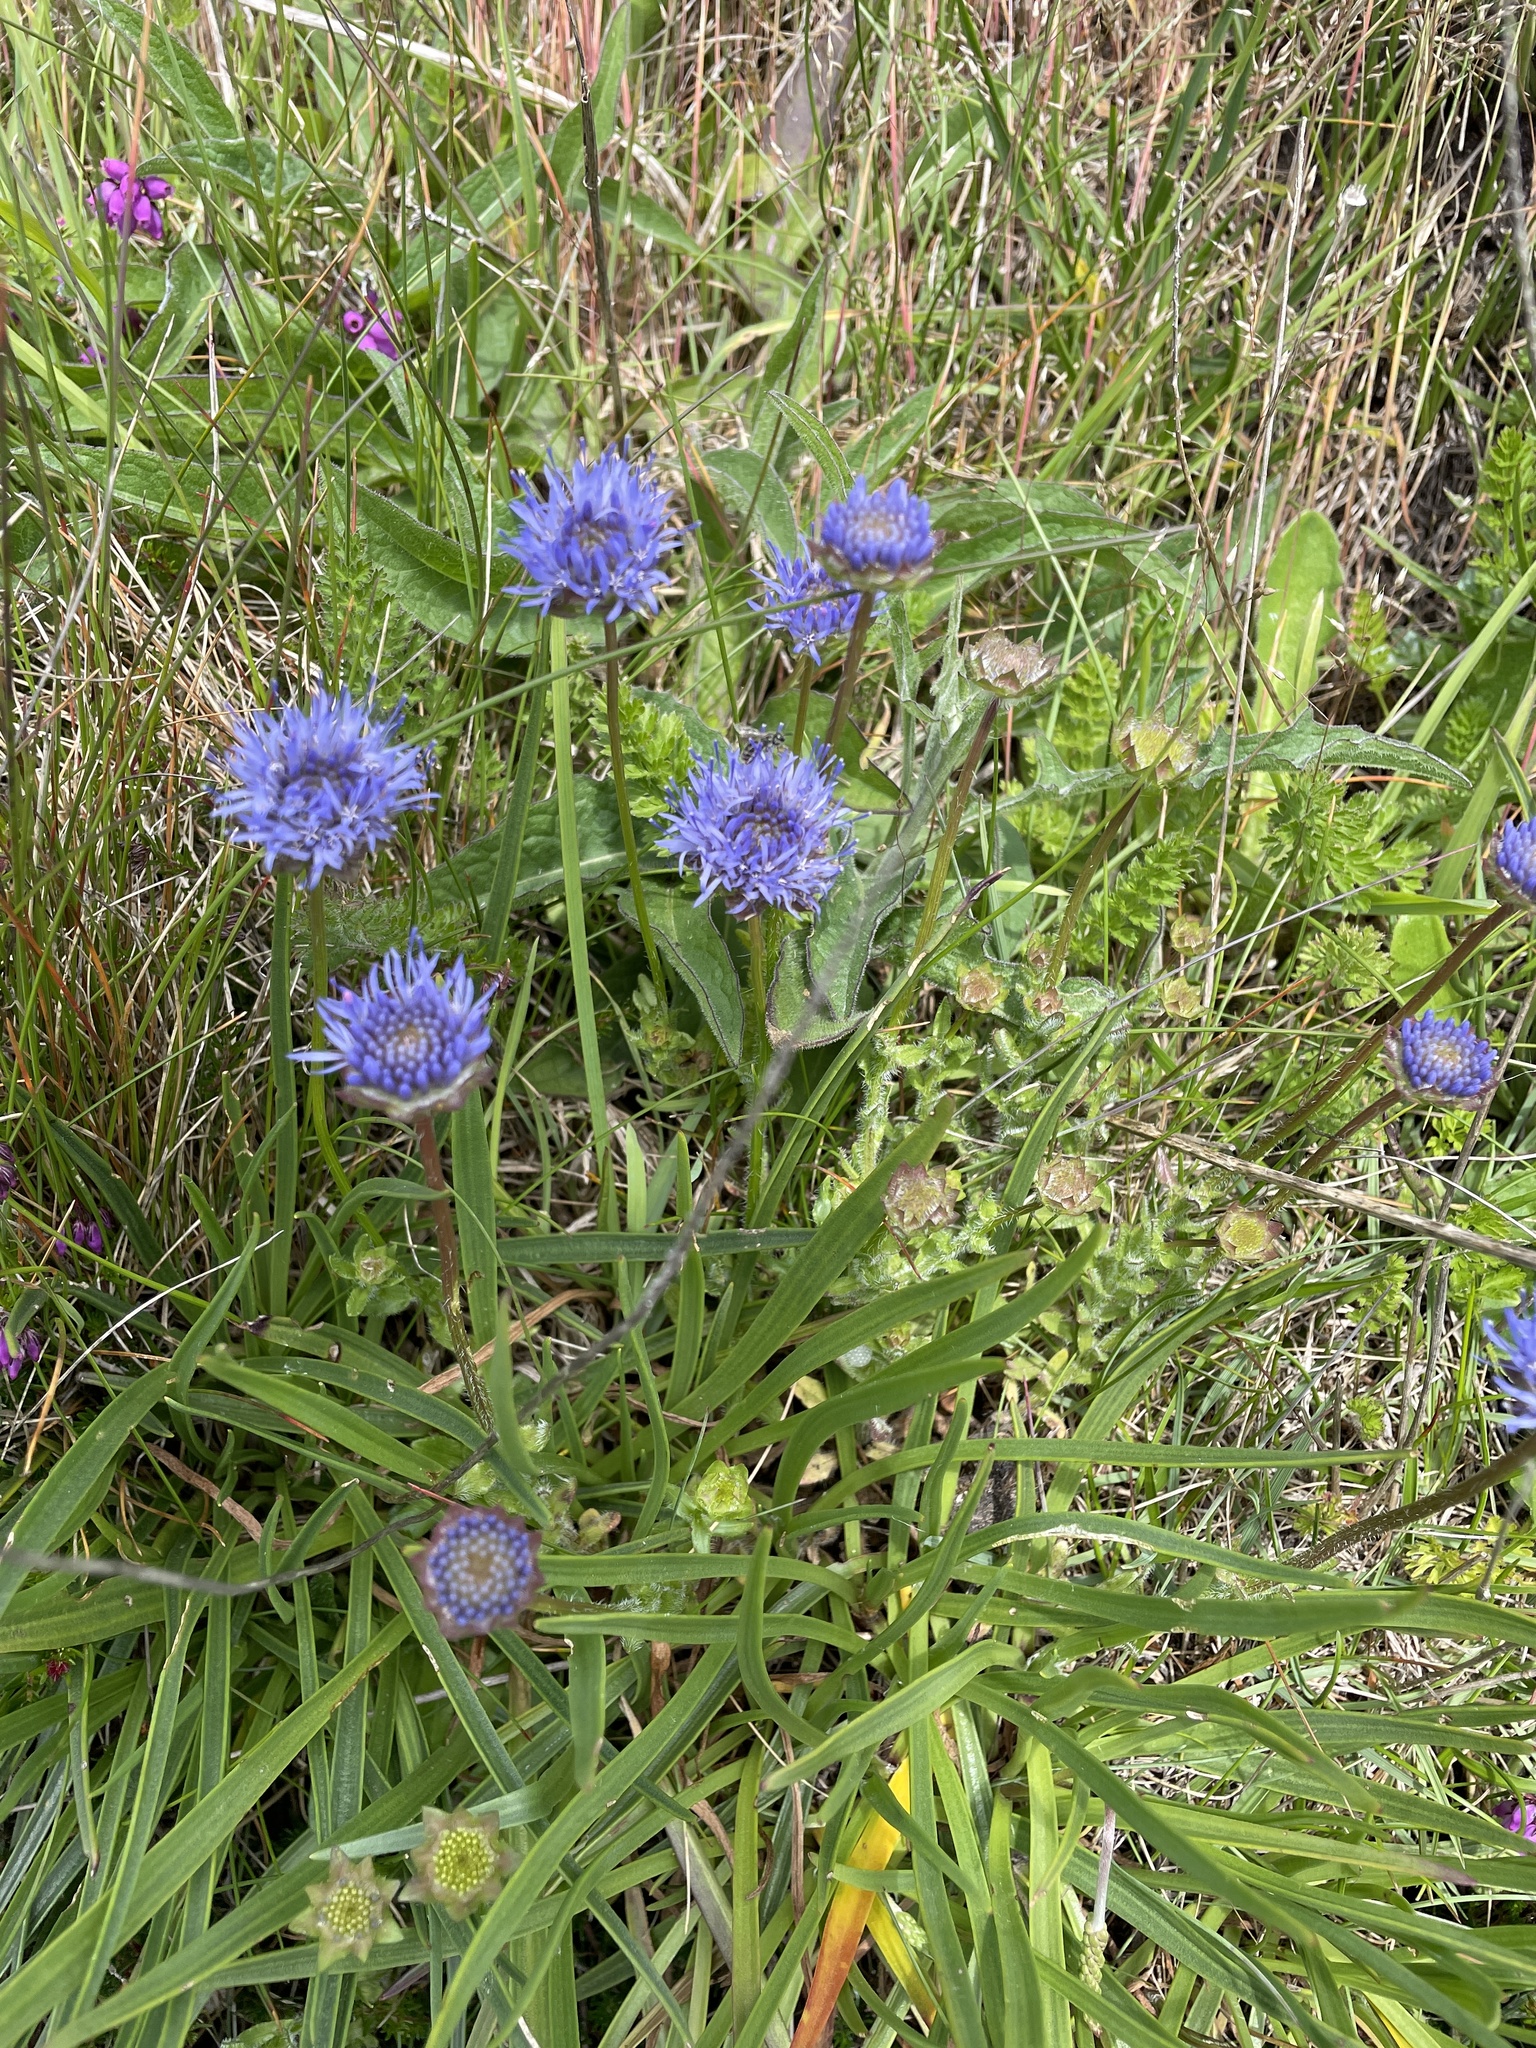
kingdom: Plantae
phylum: Tracheophyta
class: Magnoliopsida
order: Asterales
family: Campanulaceae
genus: Jasione
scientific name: Jasione montana
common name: Sheep's-bit
